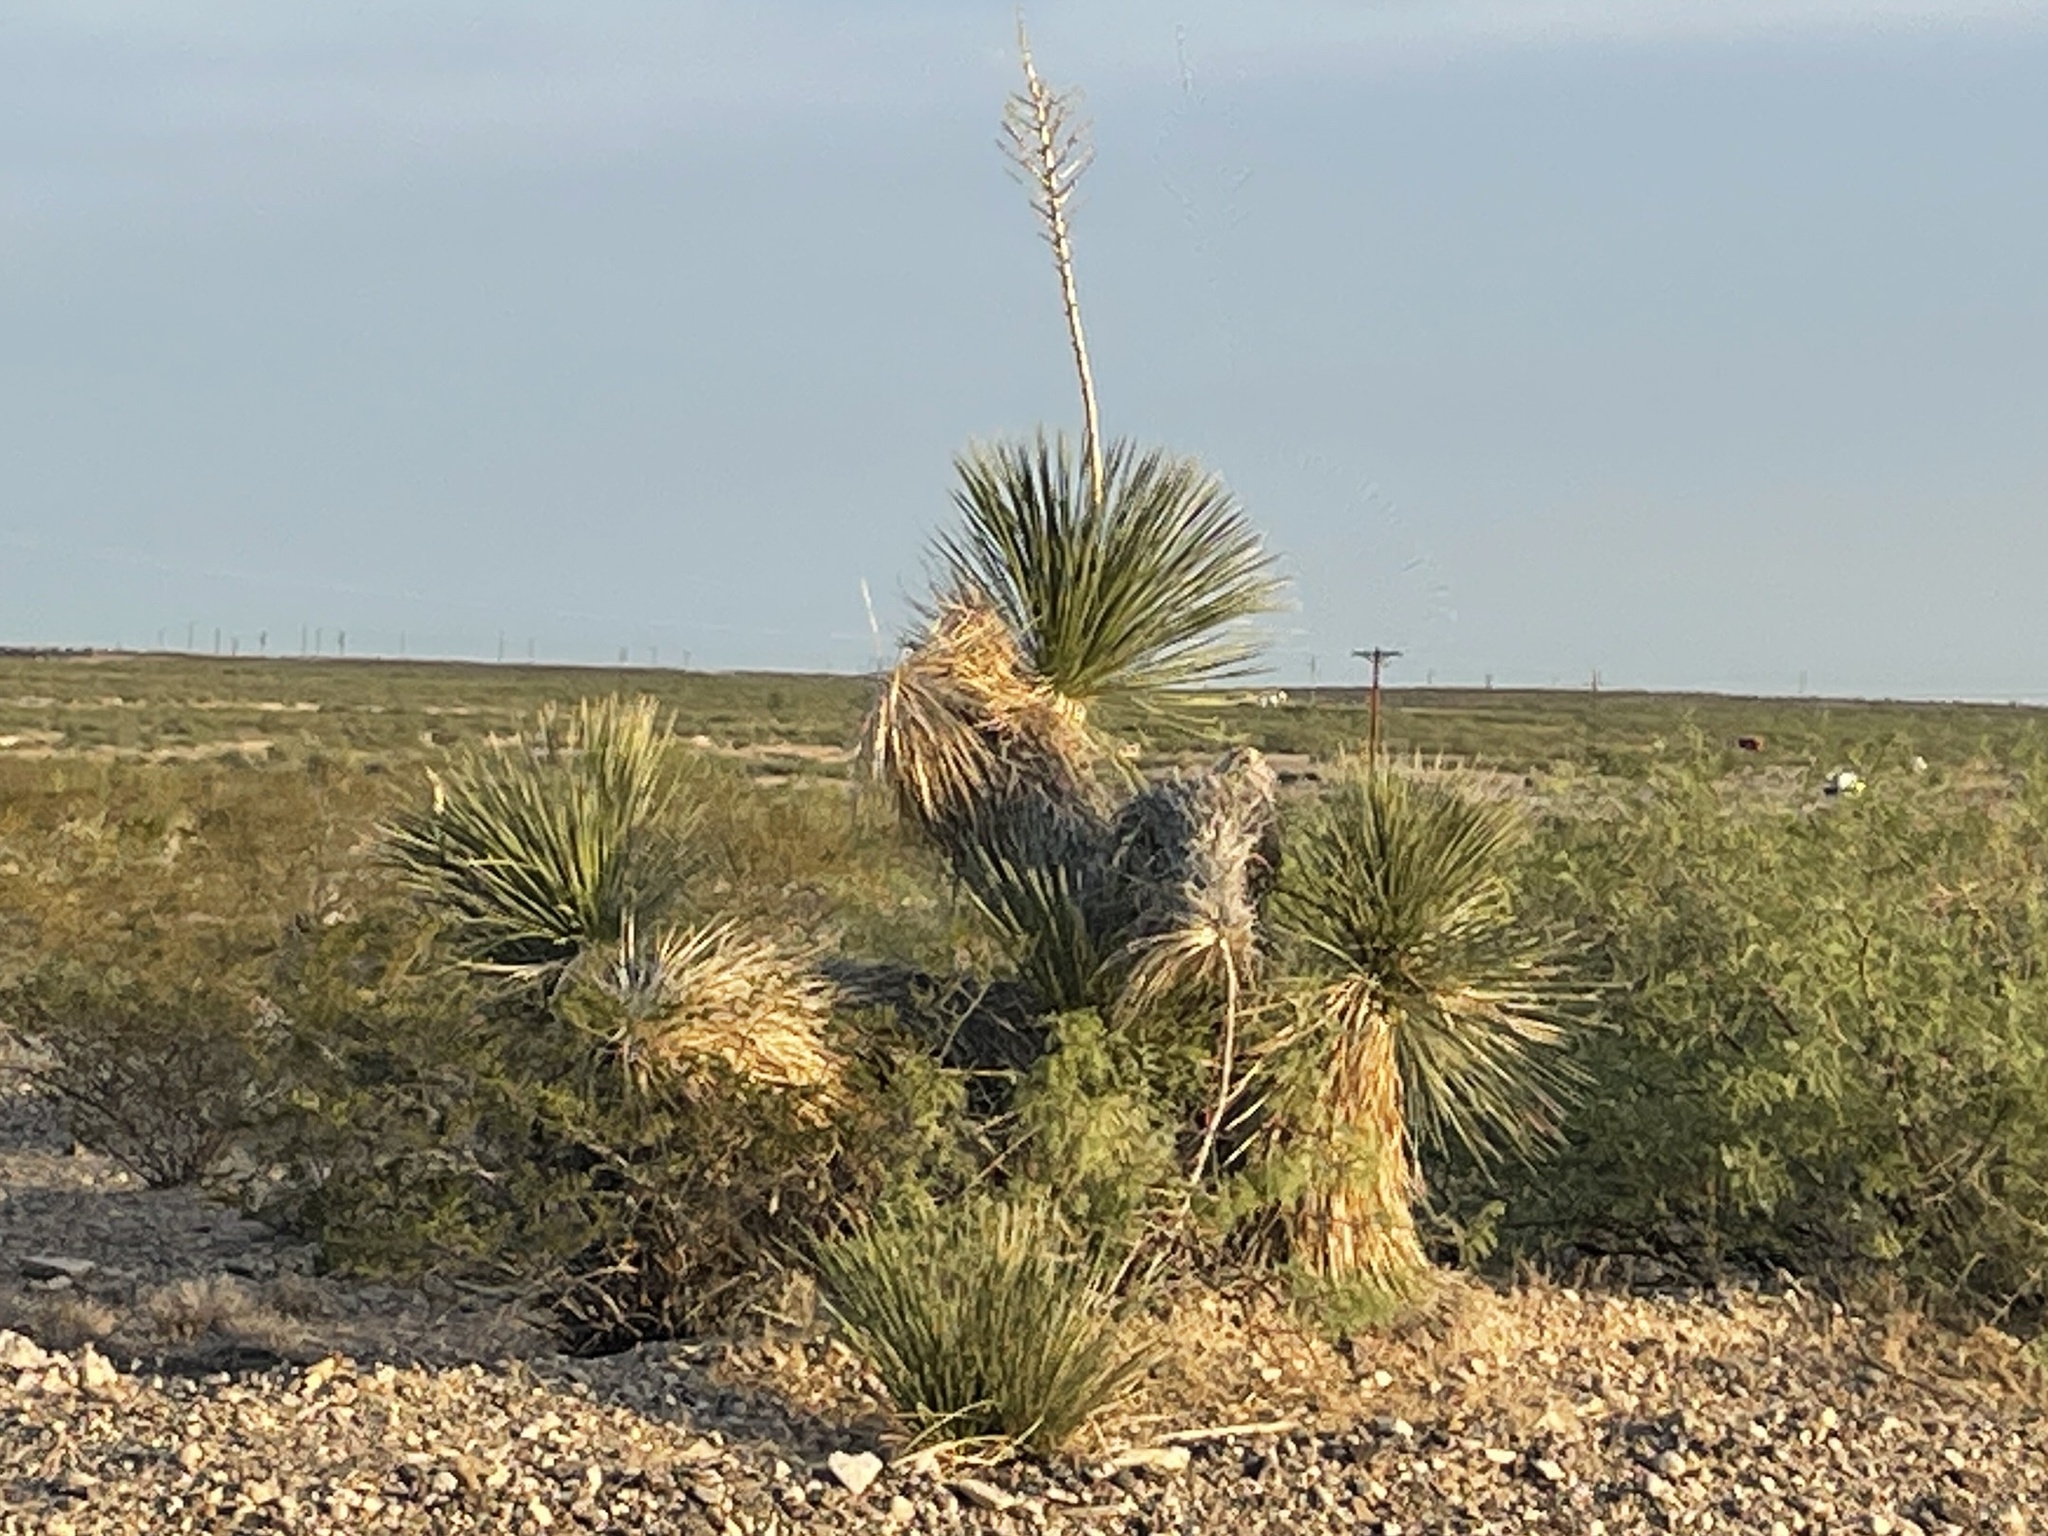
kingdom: Plantae
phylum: Tracheophyta
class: Liliopsida
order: Asparagales
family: Asparagaceae
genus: Yucca
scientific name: Yucca elata
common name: Palmella
